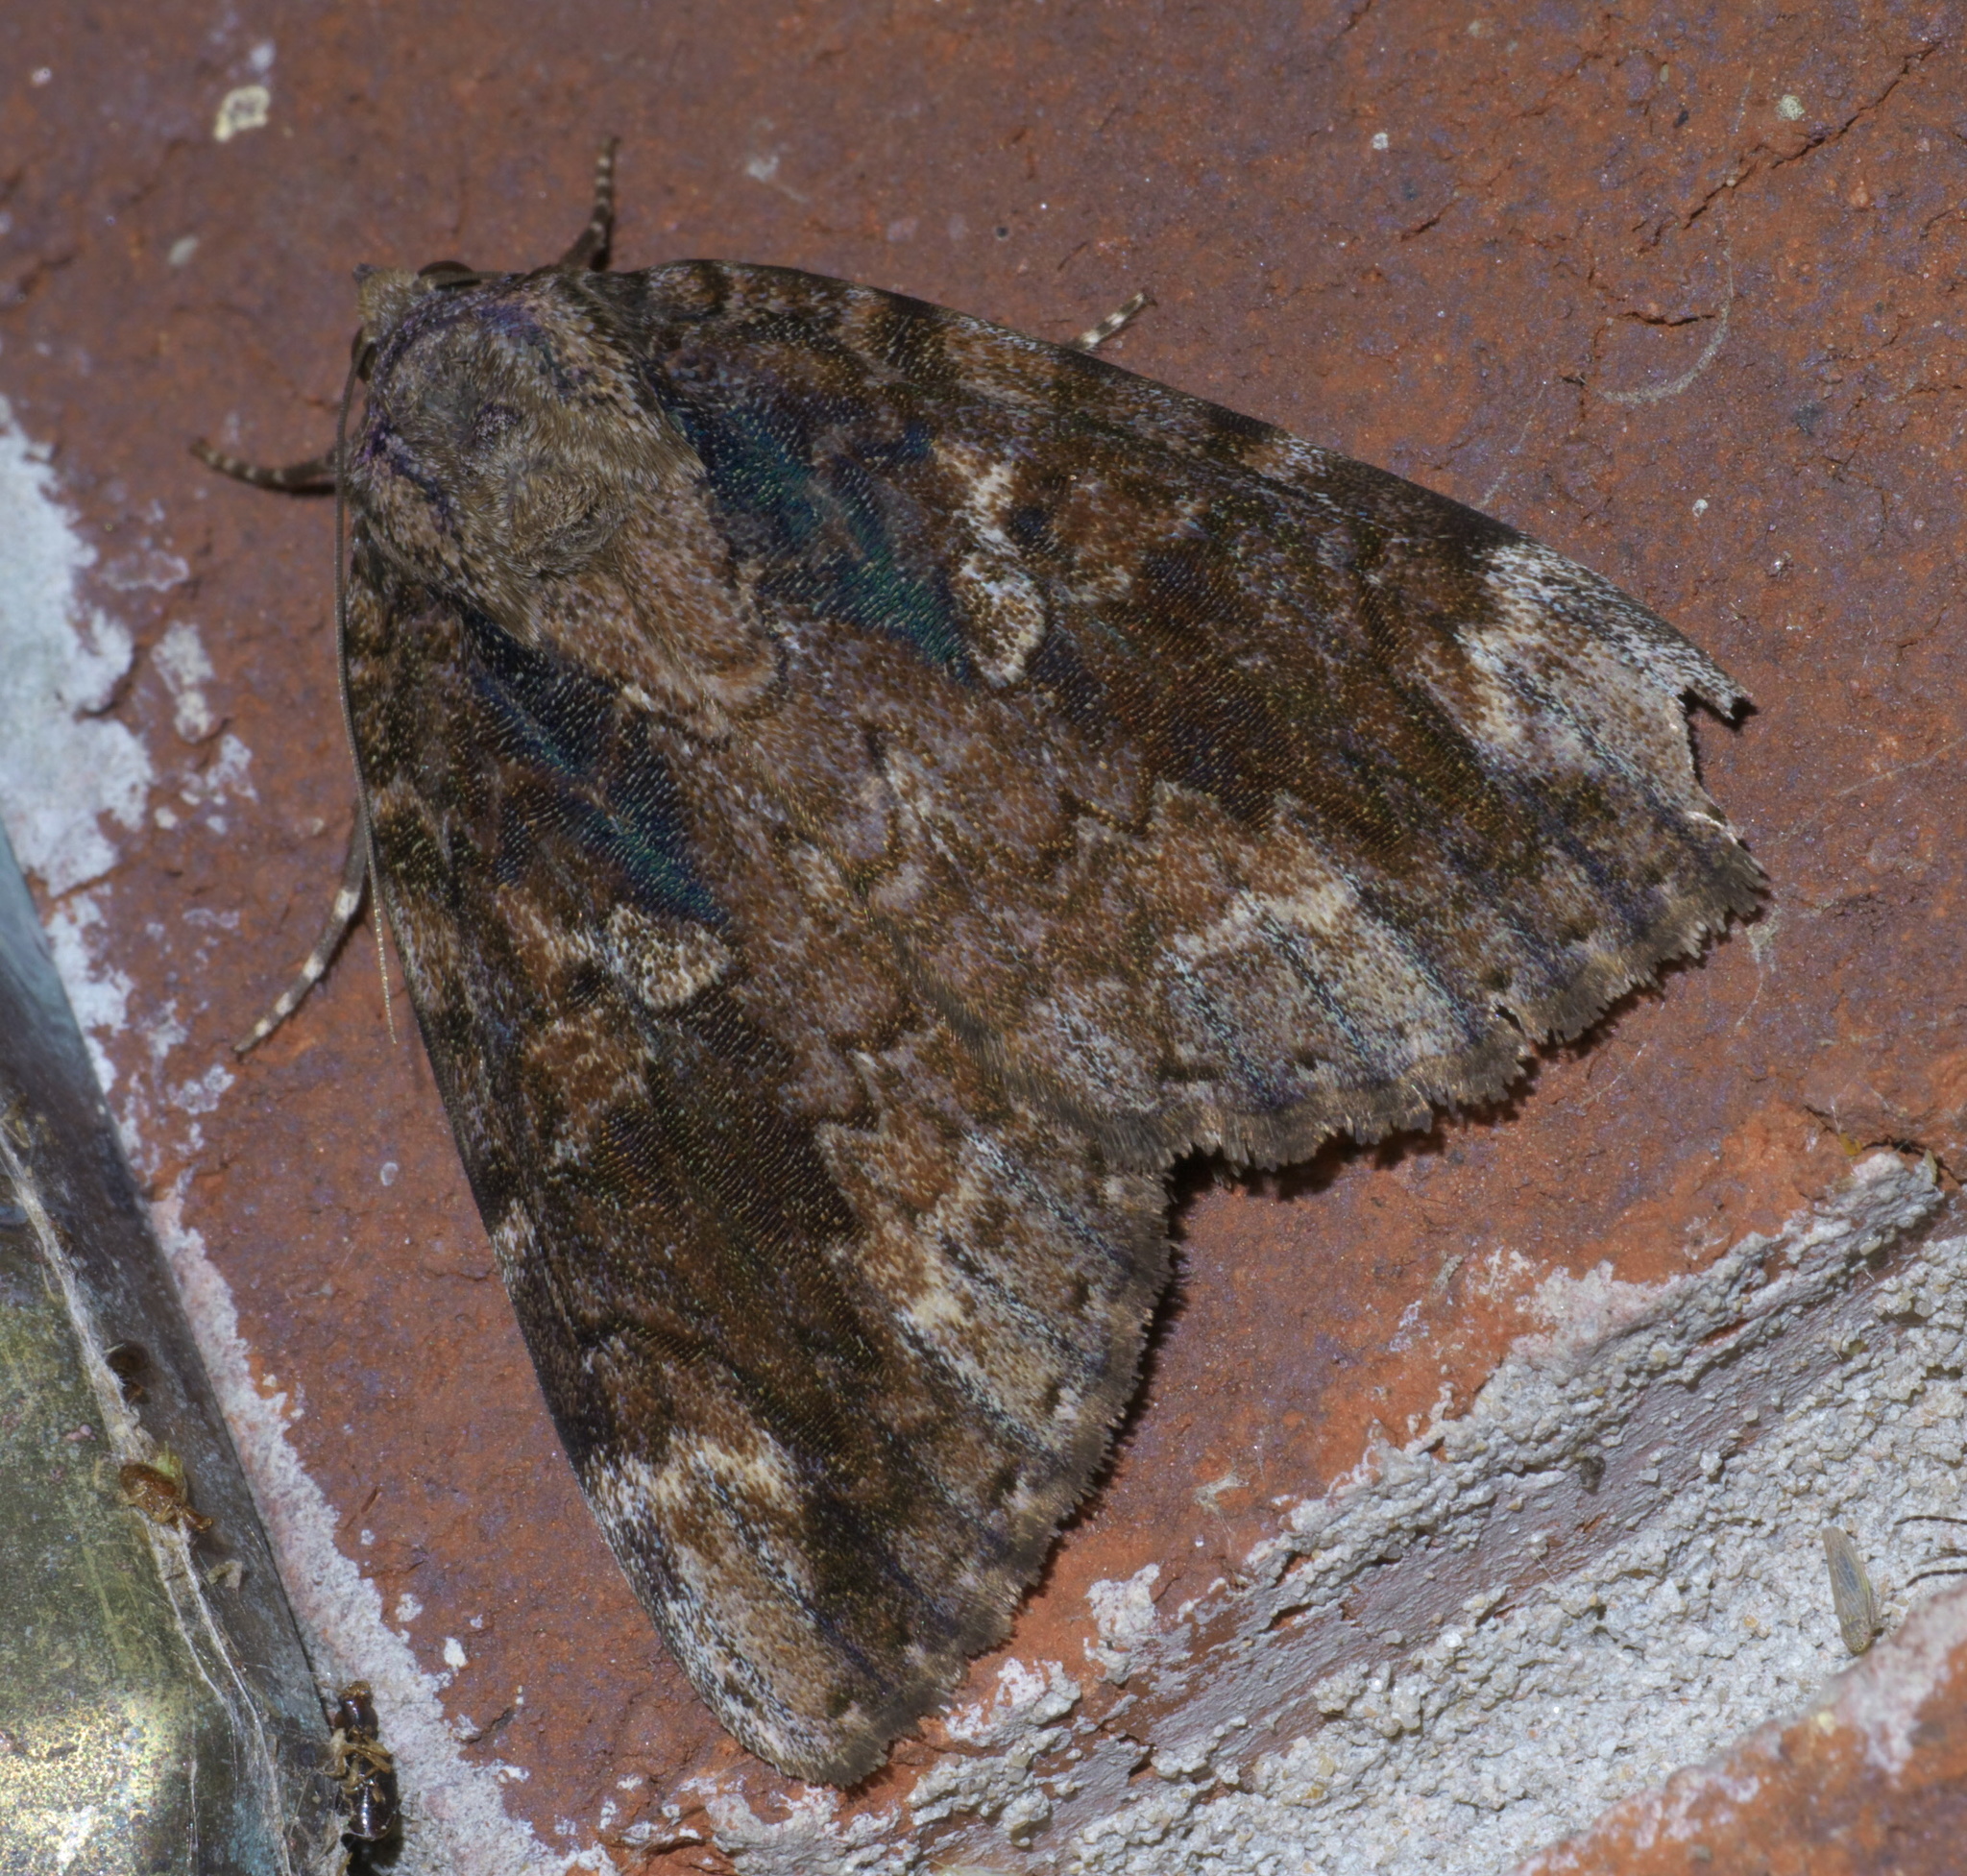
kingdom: Animalia
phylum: Arthropoda
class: Insecta
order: Lepidoptera
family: Erebidae
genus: Catocala
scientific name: Catocala innubens
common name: Betrothed underwing
